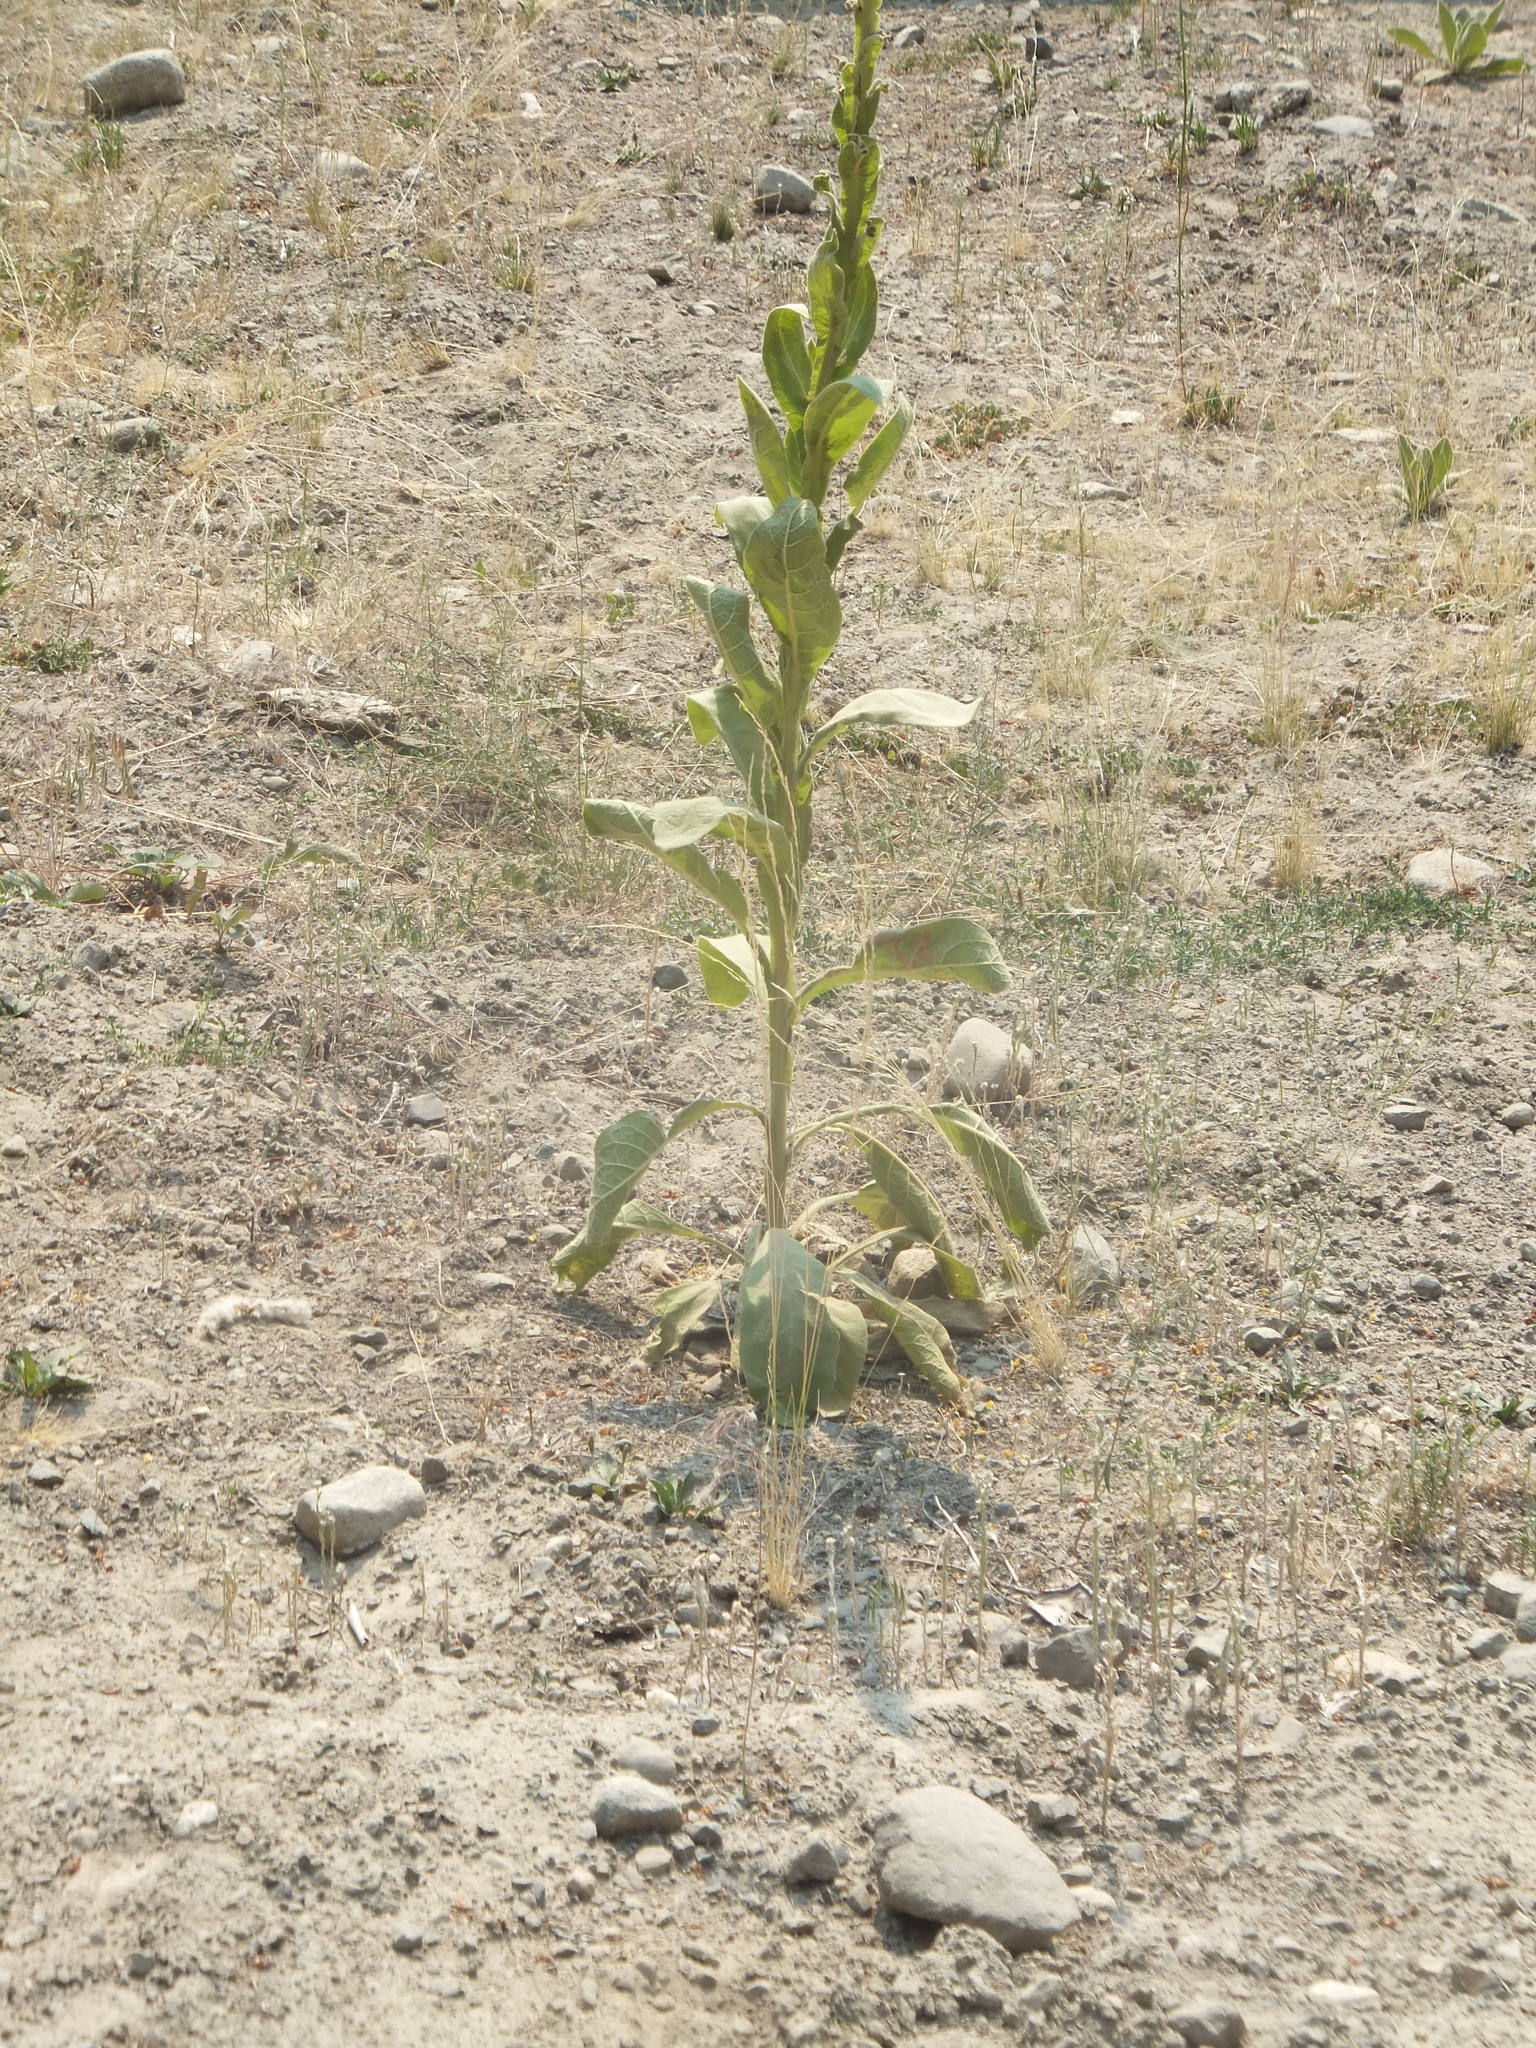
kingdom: Plantae
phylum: Tracheophyta
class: Magnoliopsida
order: Lamiales
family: Scrophulariaceae
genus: Verbascum
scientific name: Verbascum thapsus
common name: Common mullein
